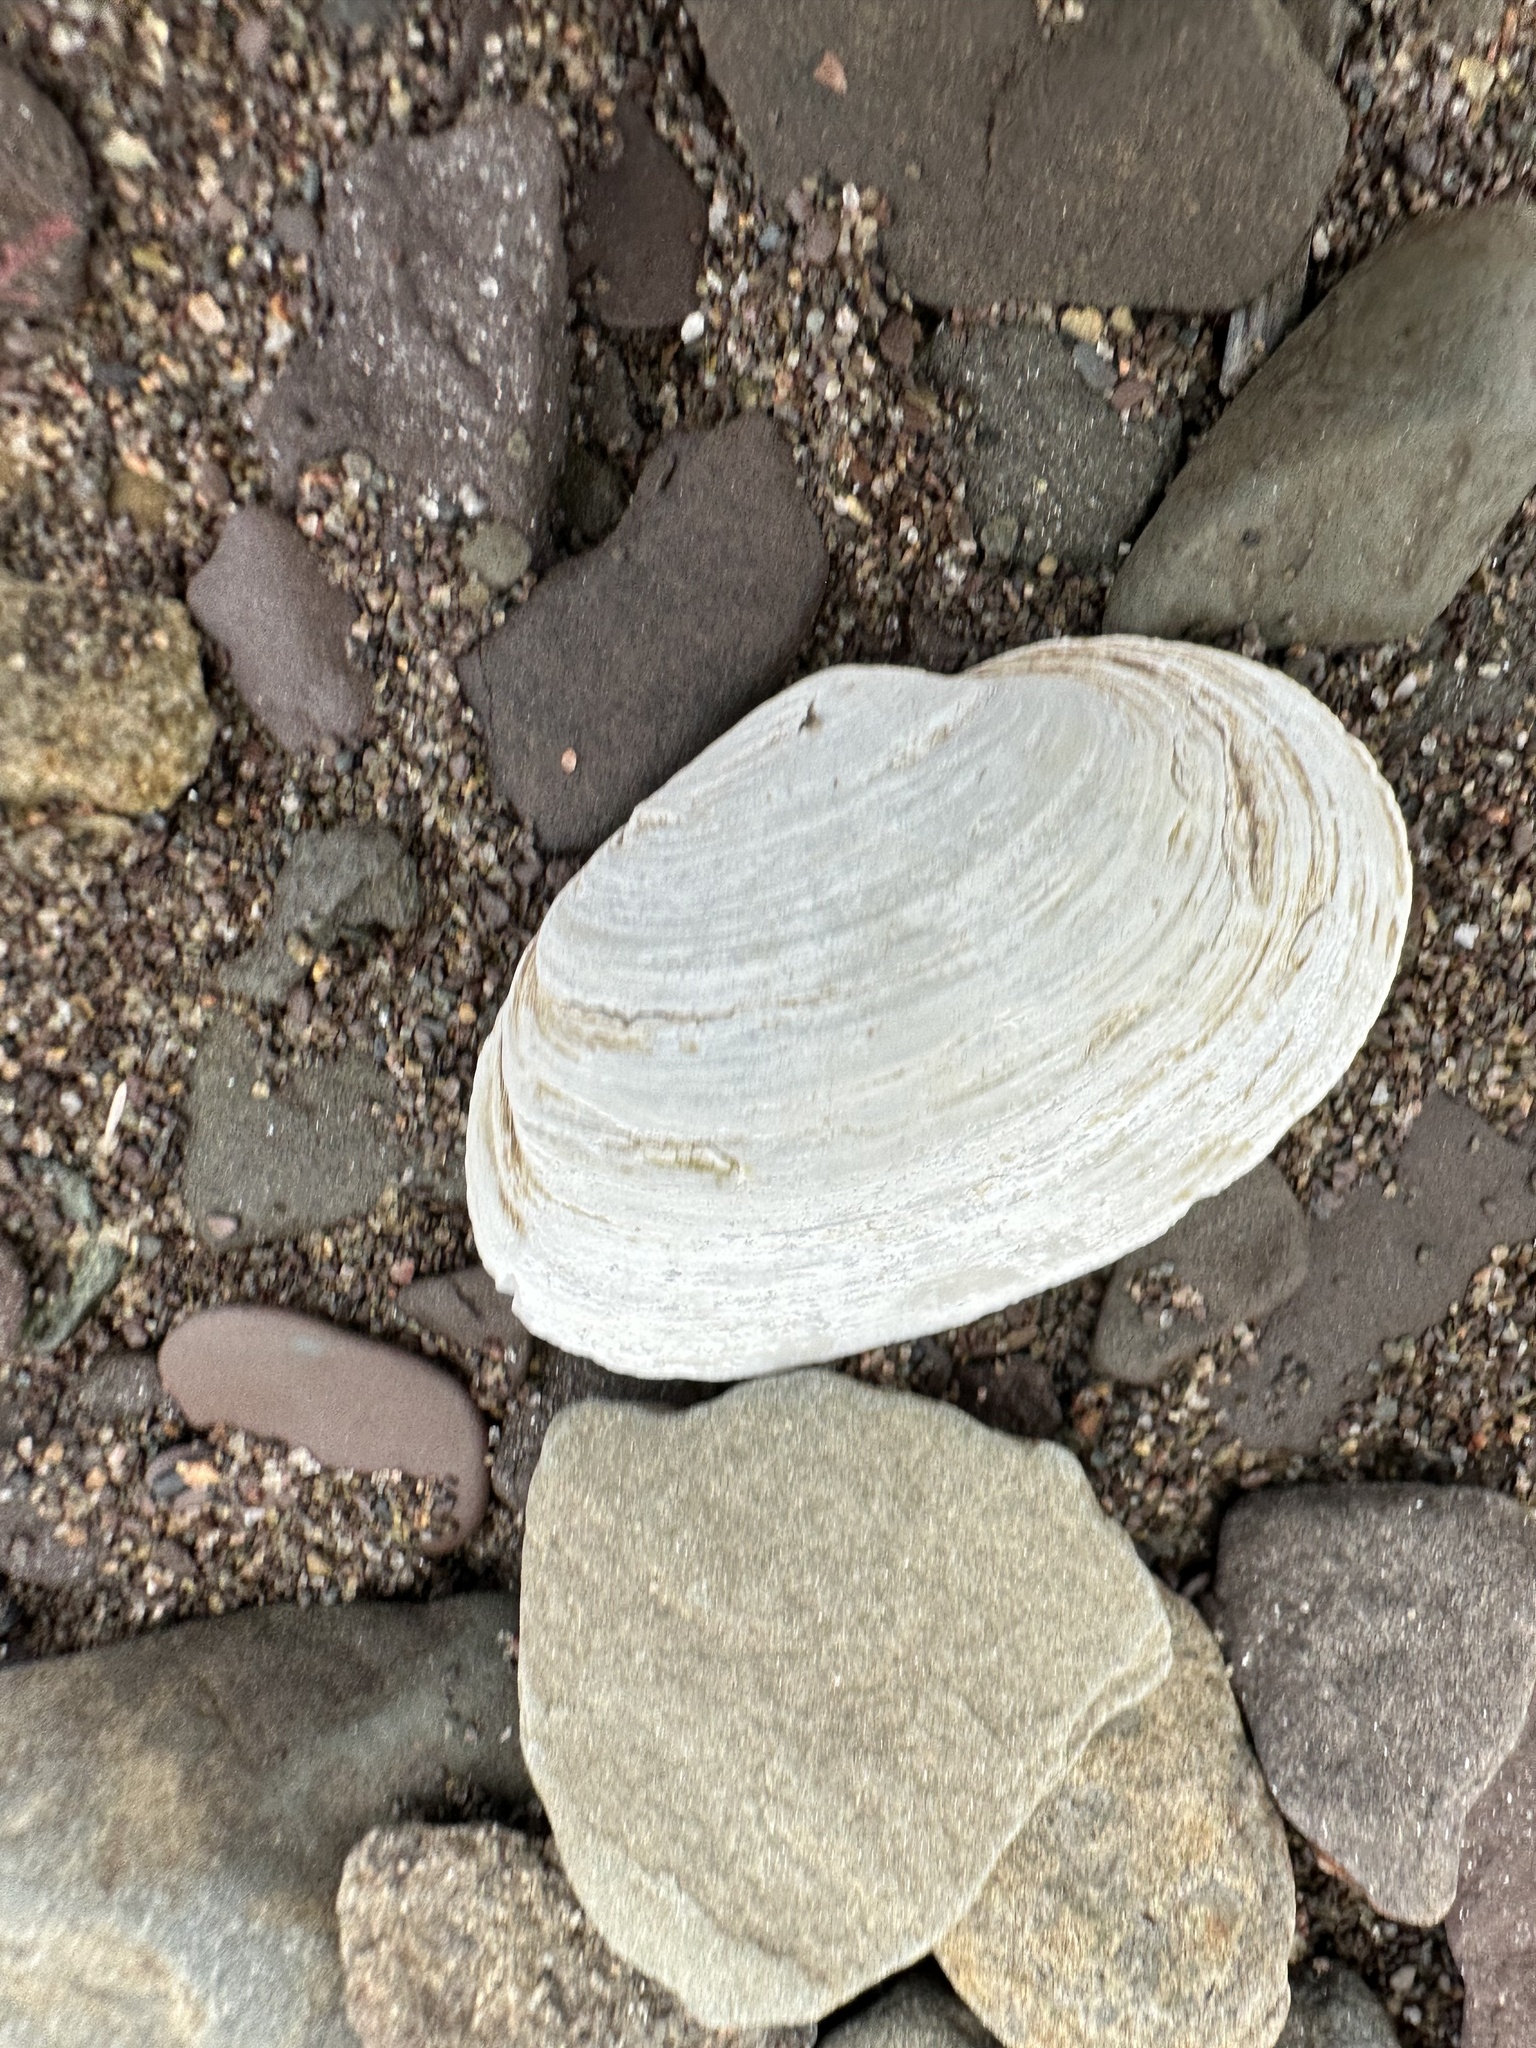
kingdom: Animalia
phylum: Mollusca
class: Bivalvia
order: Myida
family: Myidae
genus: Mya
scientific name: Mya arenaria
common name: Soft-shelled clam
